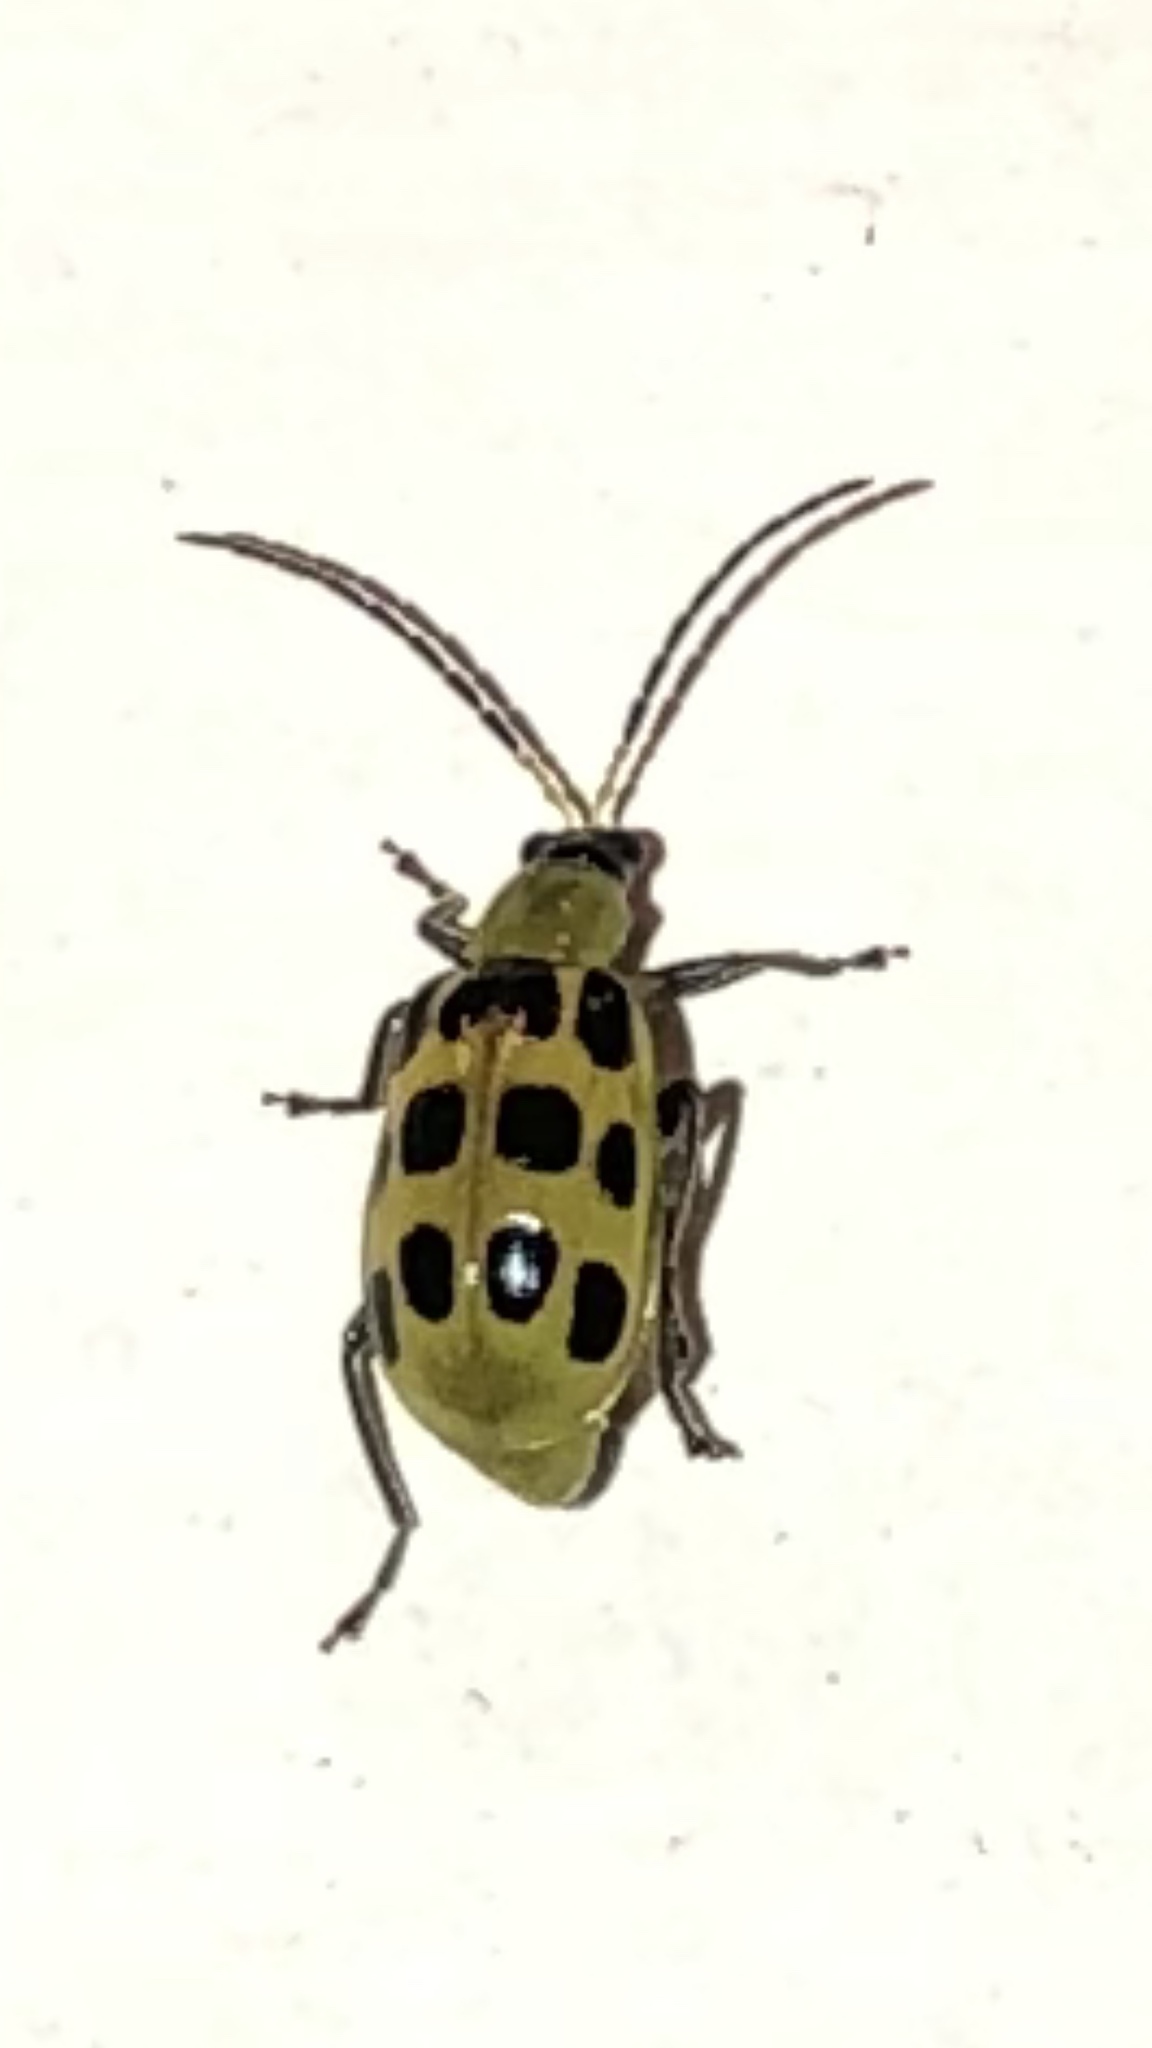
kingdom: Animalia
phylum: Arthropoda
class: Insecta
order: Coleoptera
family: Chrysomelidae
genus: Diabrotica
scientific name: Diabrotica undecimpunctata
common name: Spotted cucumber beetle
